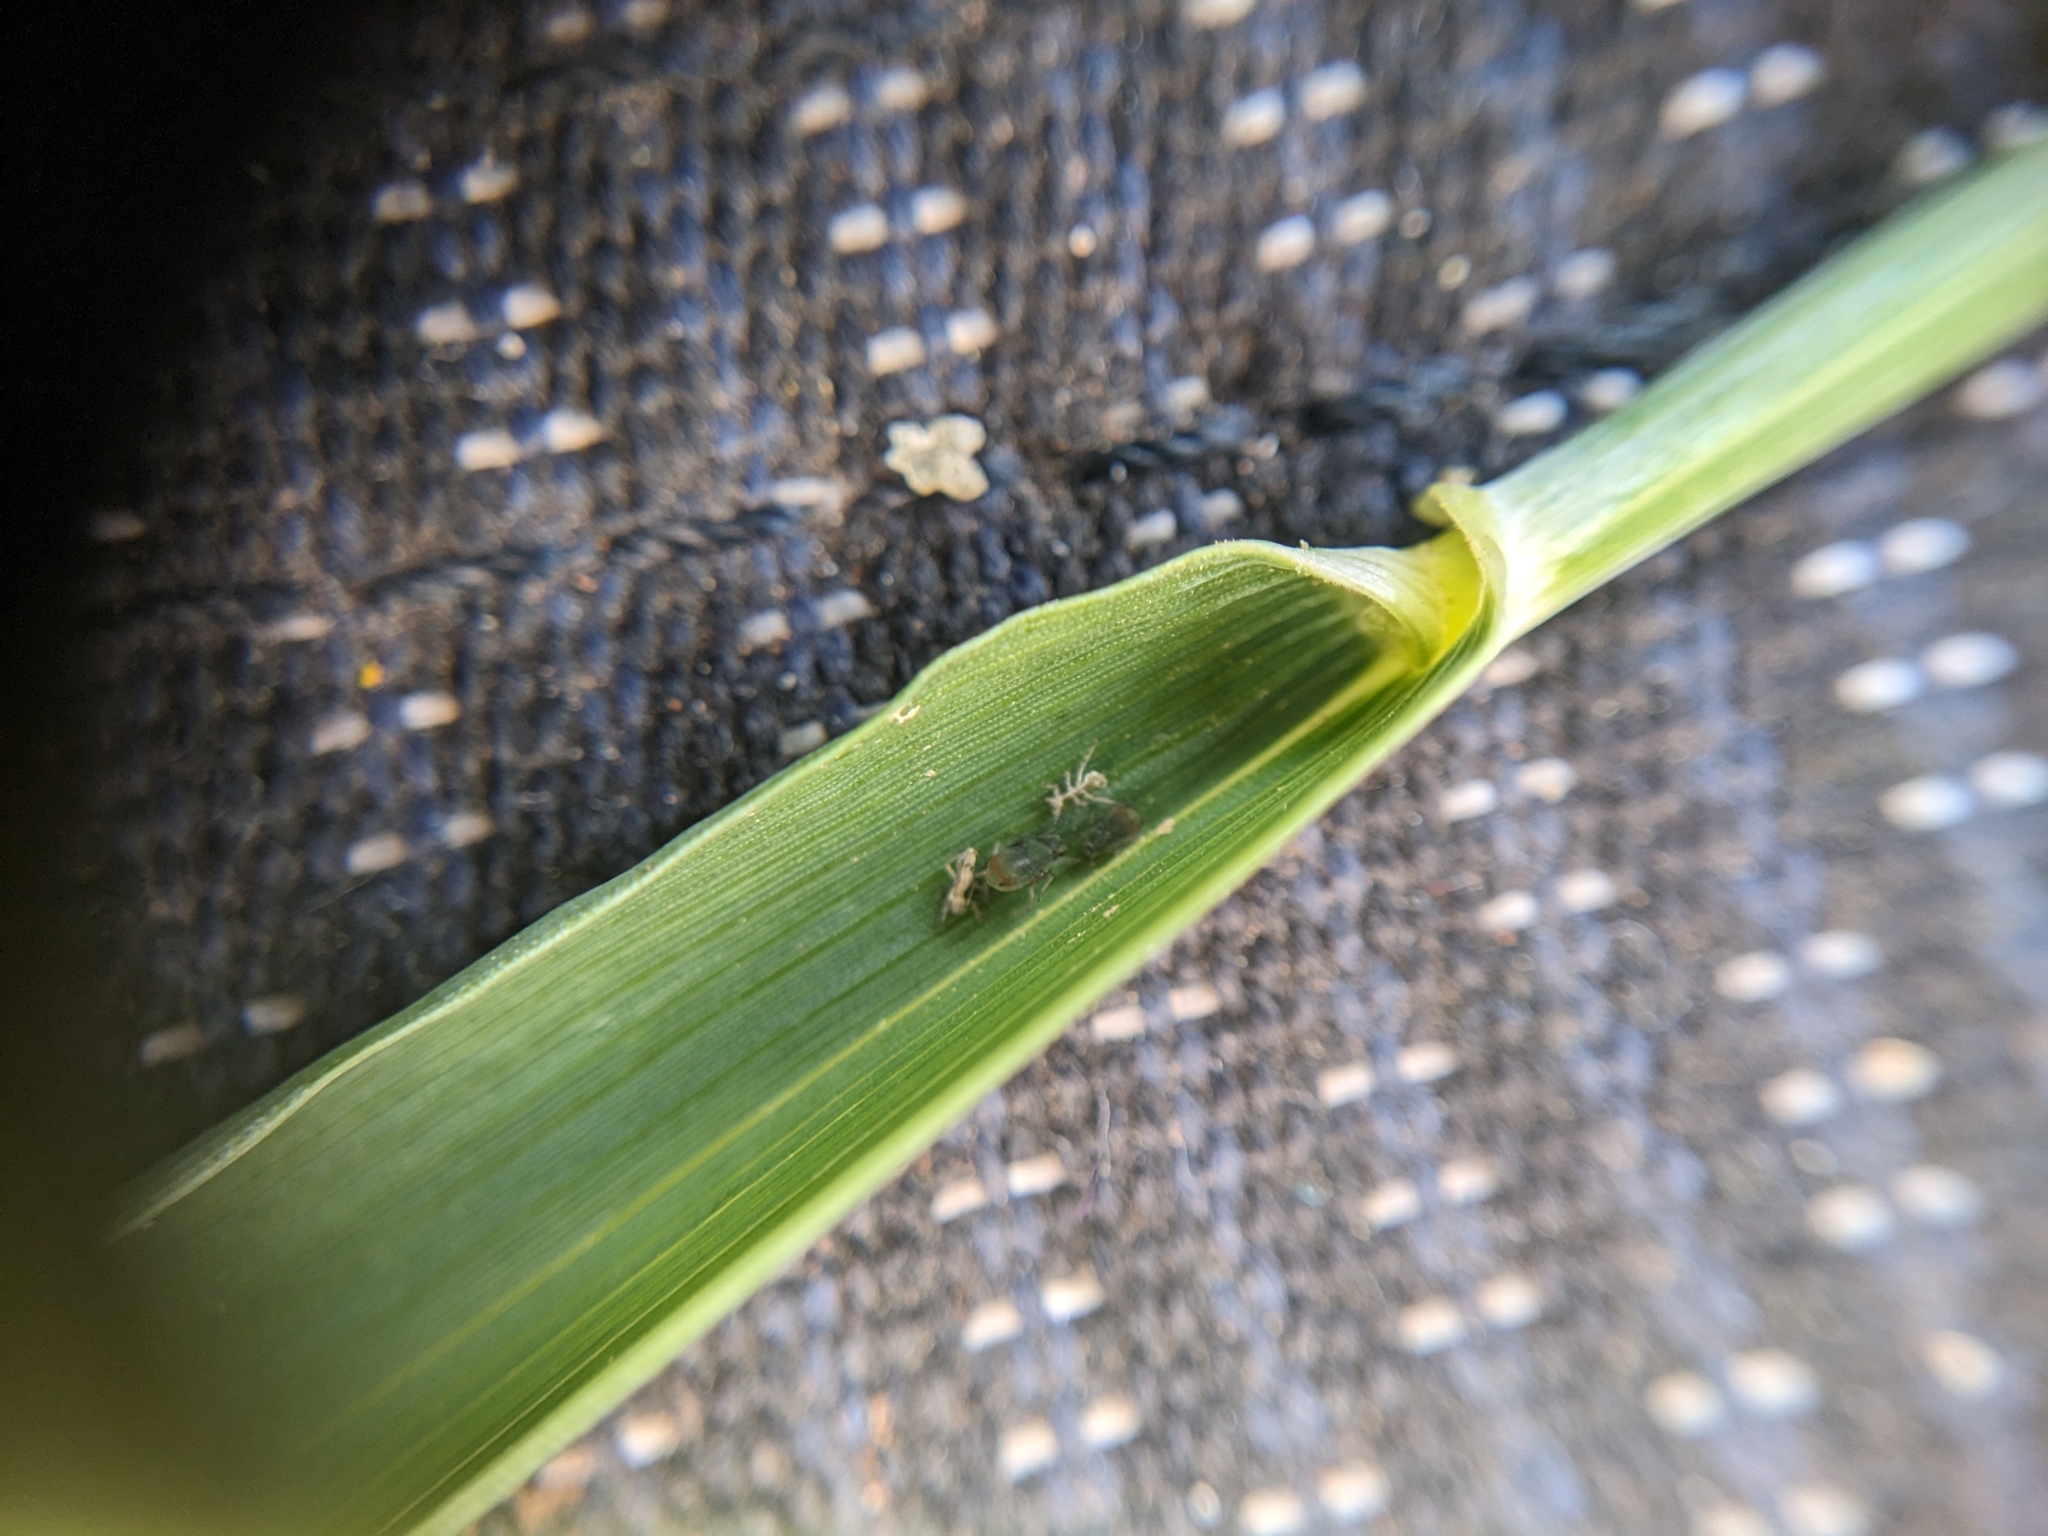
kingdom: Animalia
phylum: Arthropoda
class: Insecta
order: Hemiptera
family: Aphididae
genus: Rhopalosiphum
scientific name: Rhopalosiphum padi
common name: Oat-birdcherry aphid
